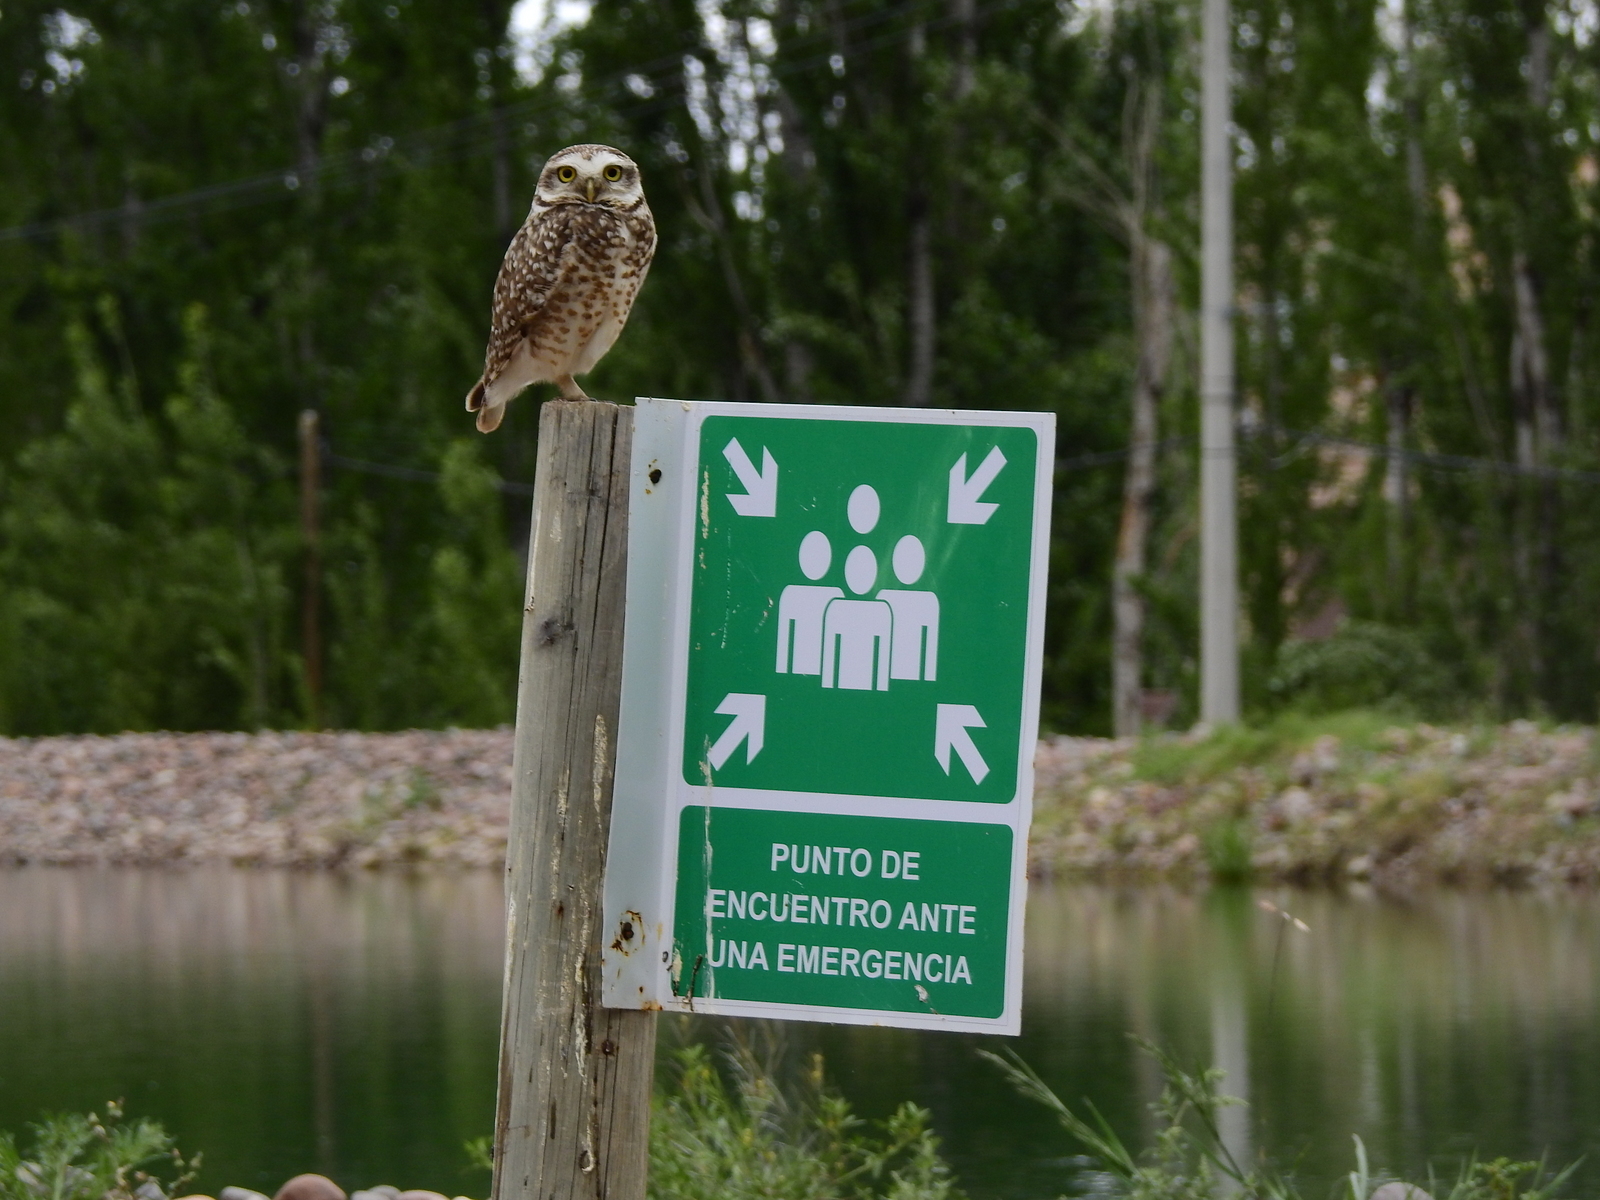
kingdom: Animalia
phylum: Chordata
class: Aves
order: Strigiformes
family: Strigidae
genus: Athene
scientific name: Athene cunicularia
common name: Burrowing owl
